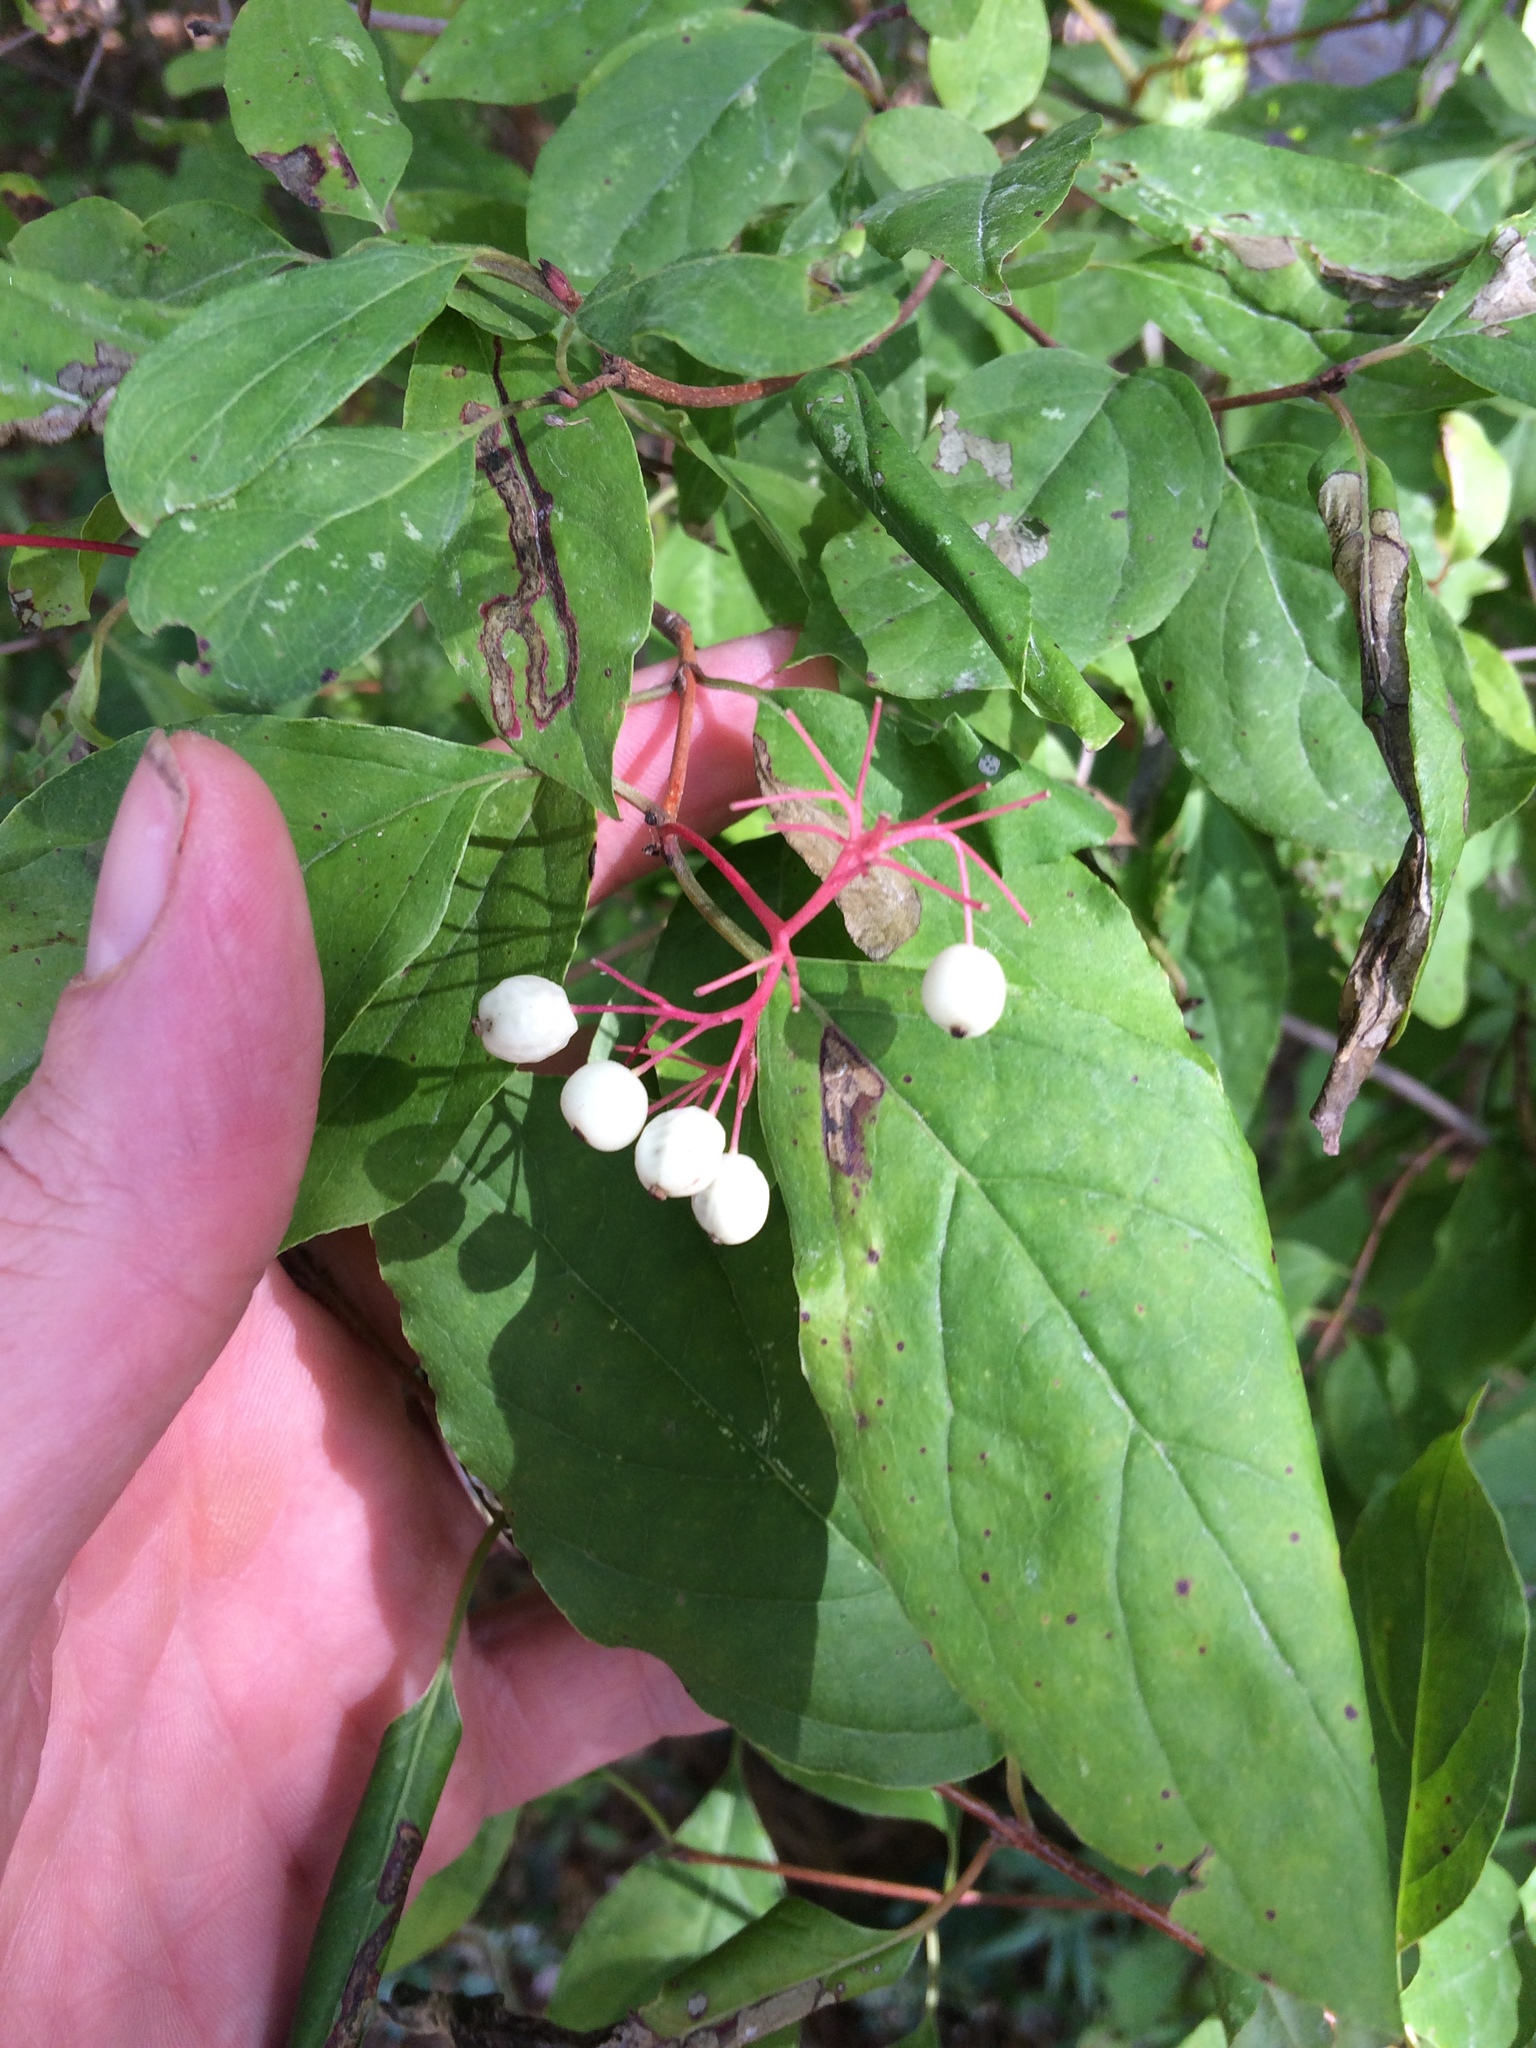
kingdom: Plantae
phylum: Tracheophyta
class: Magnoliopsida
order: Cornales
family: Cornaceae
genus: Cornus
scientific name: Cornus racemosa
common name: Panicled dogwood
